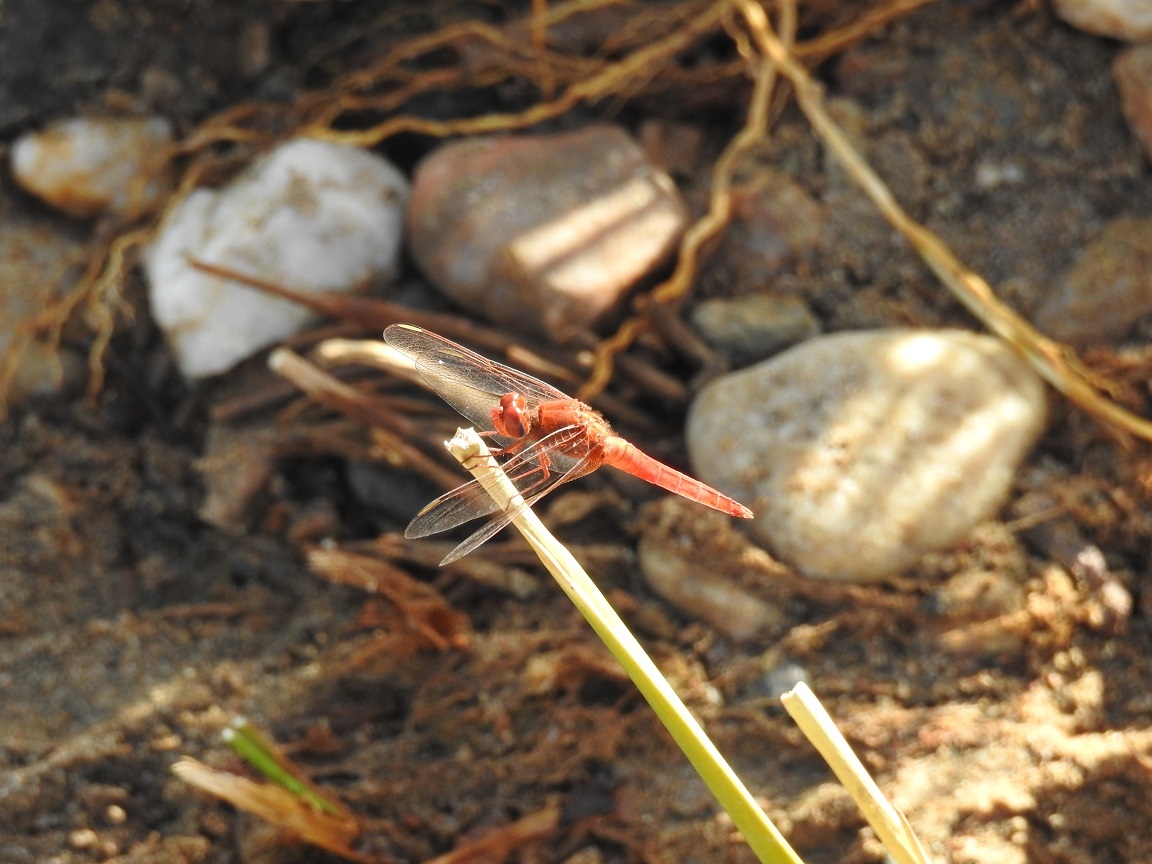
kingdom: Animalia
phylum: Arthropoda
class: Insecta
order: Odonata
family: Libellulidae
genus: Crocothemis
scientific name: Crocothemis erythraea
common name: Scarlet dragonfly
